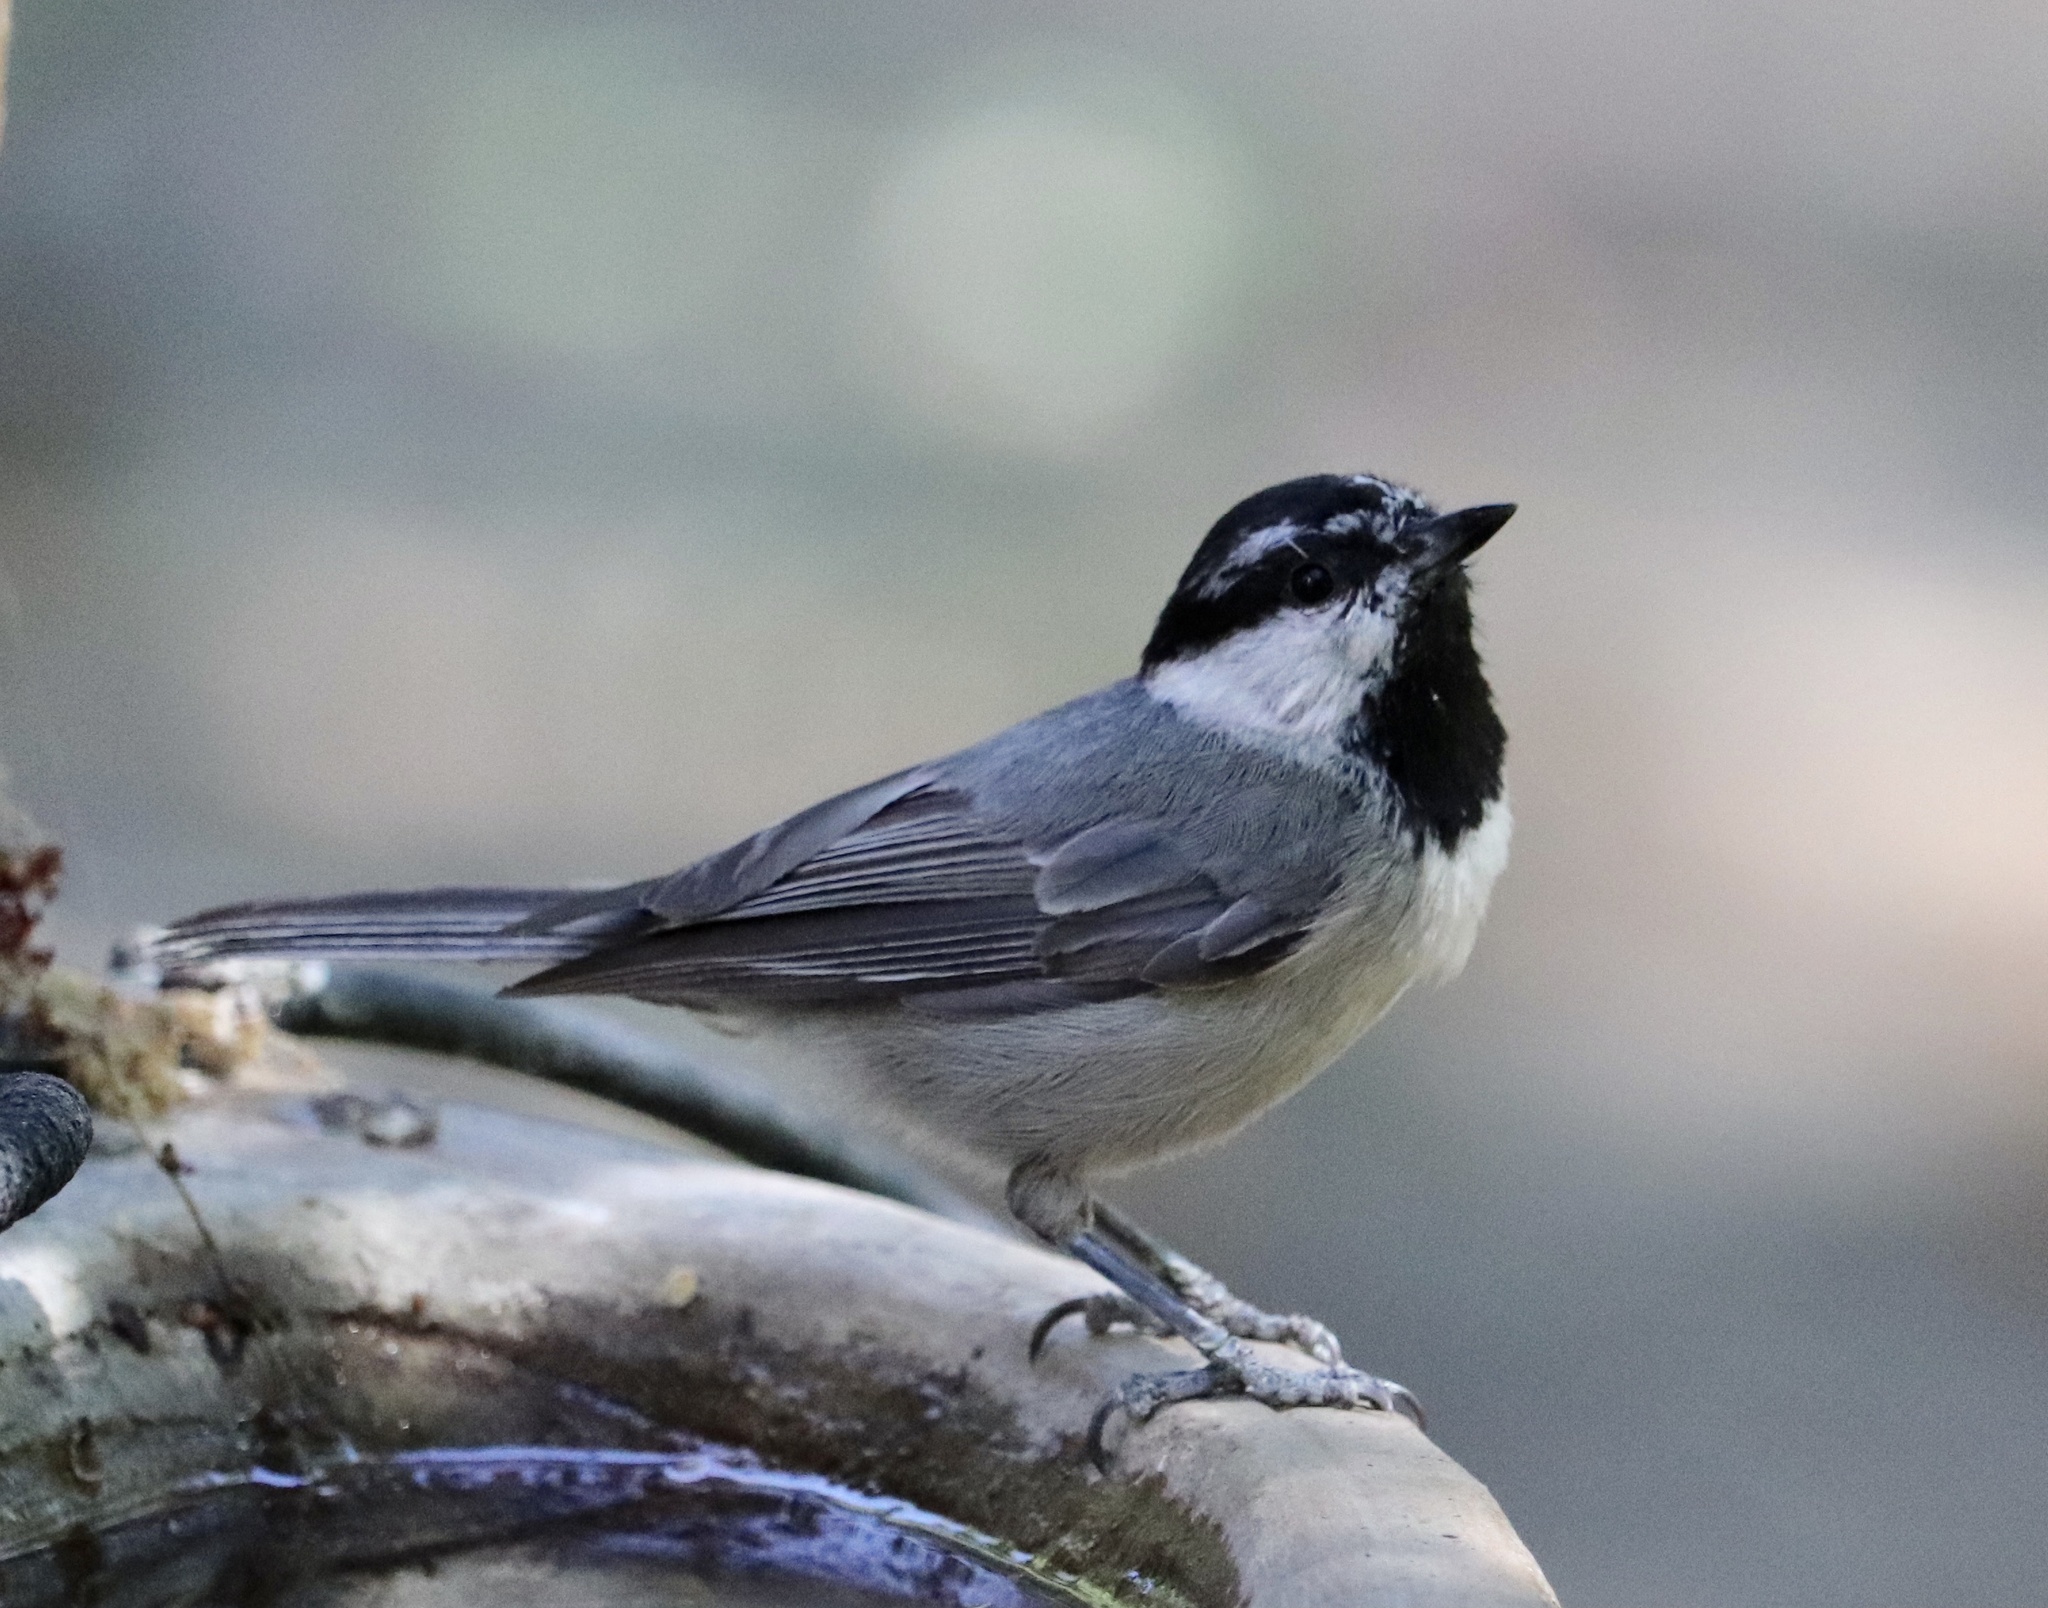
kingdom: Animalia
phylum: Chordata
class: Aves
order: Passeriformes
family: Paridae
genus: Poecile
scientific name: Poecile gambeli
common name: Mountain chickadee
